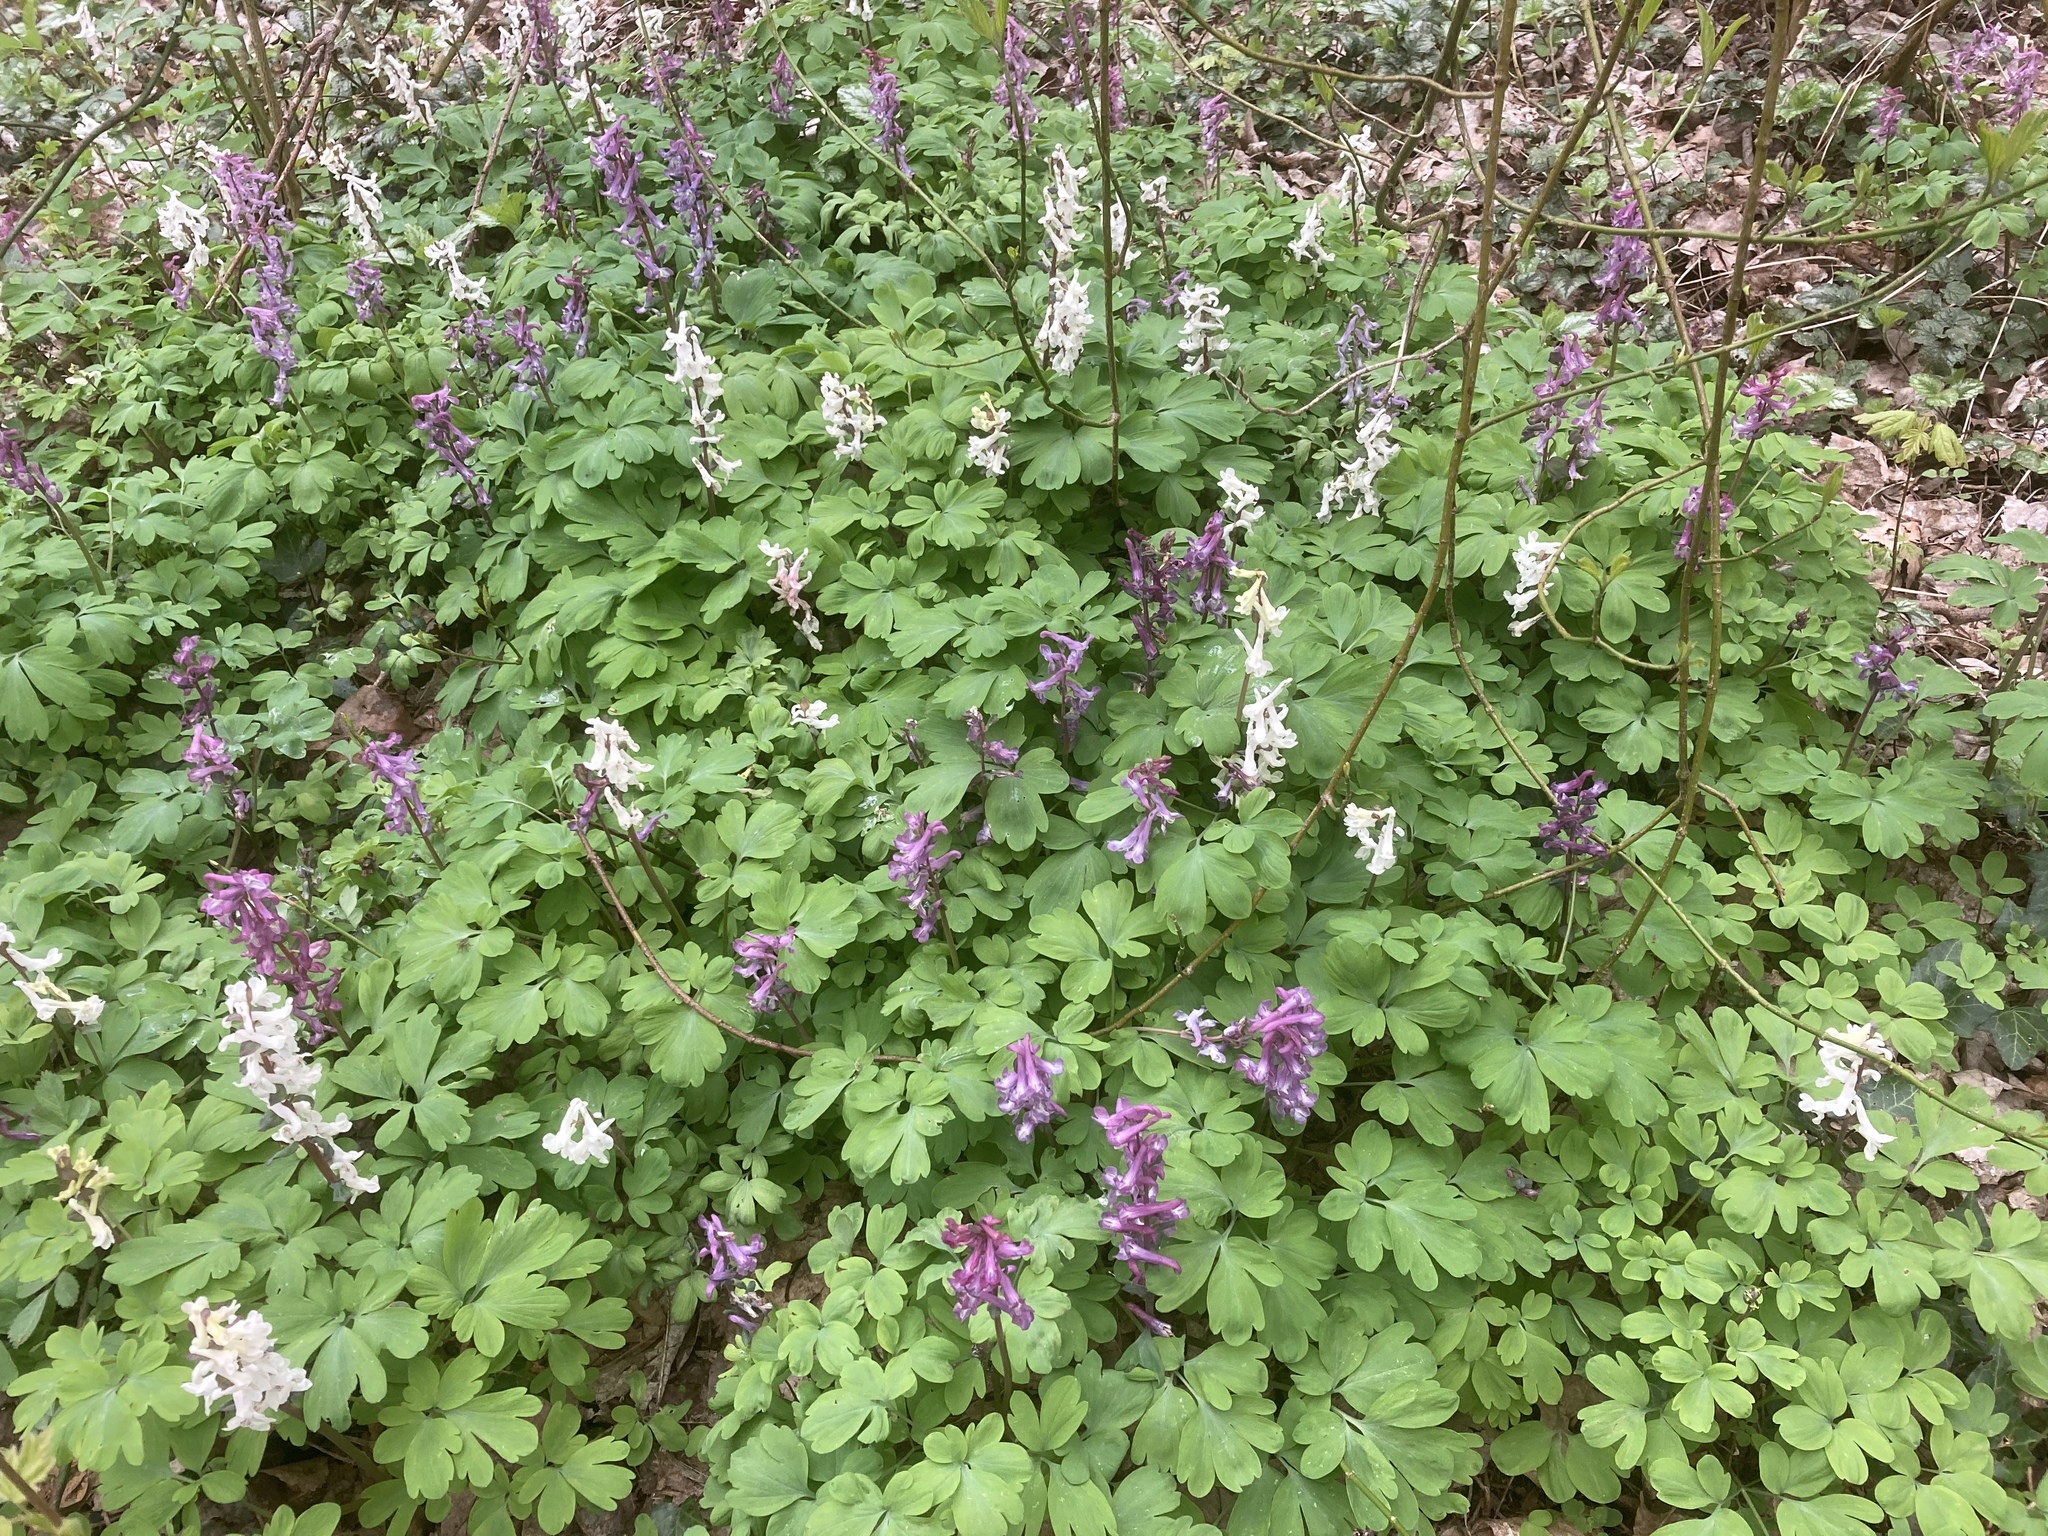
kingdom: Plantae
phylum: Tracheophyta
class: Magnoliopsida
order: Ranunculales
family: Papaveraceae
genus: Corydalis
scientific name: Corydalis cava
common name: Hollowroot
